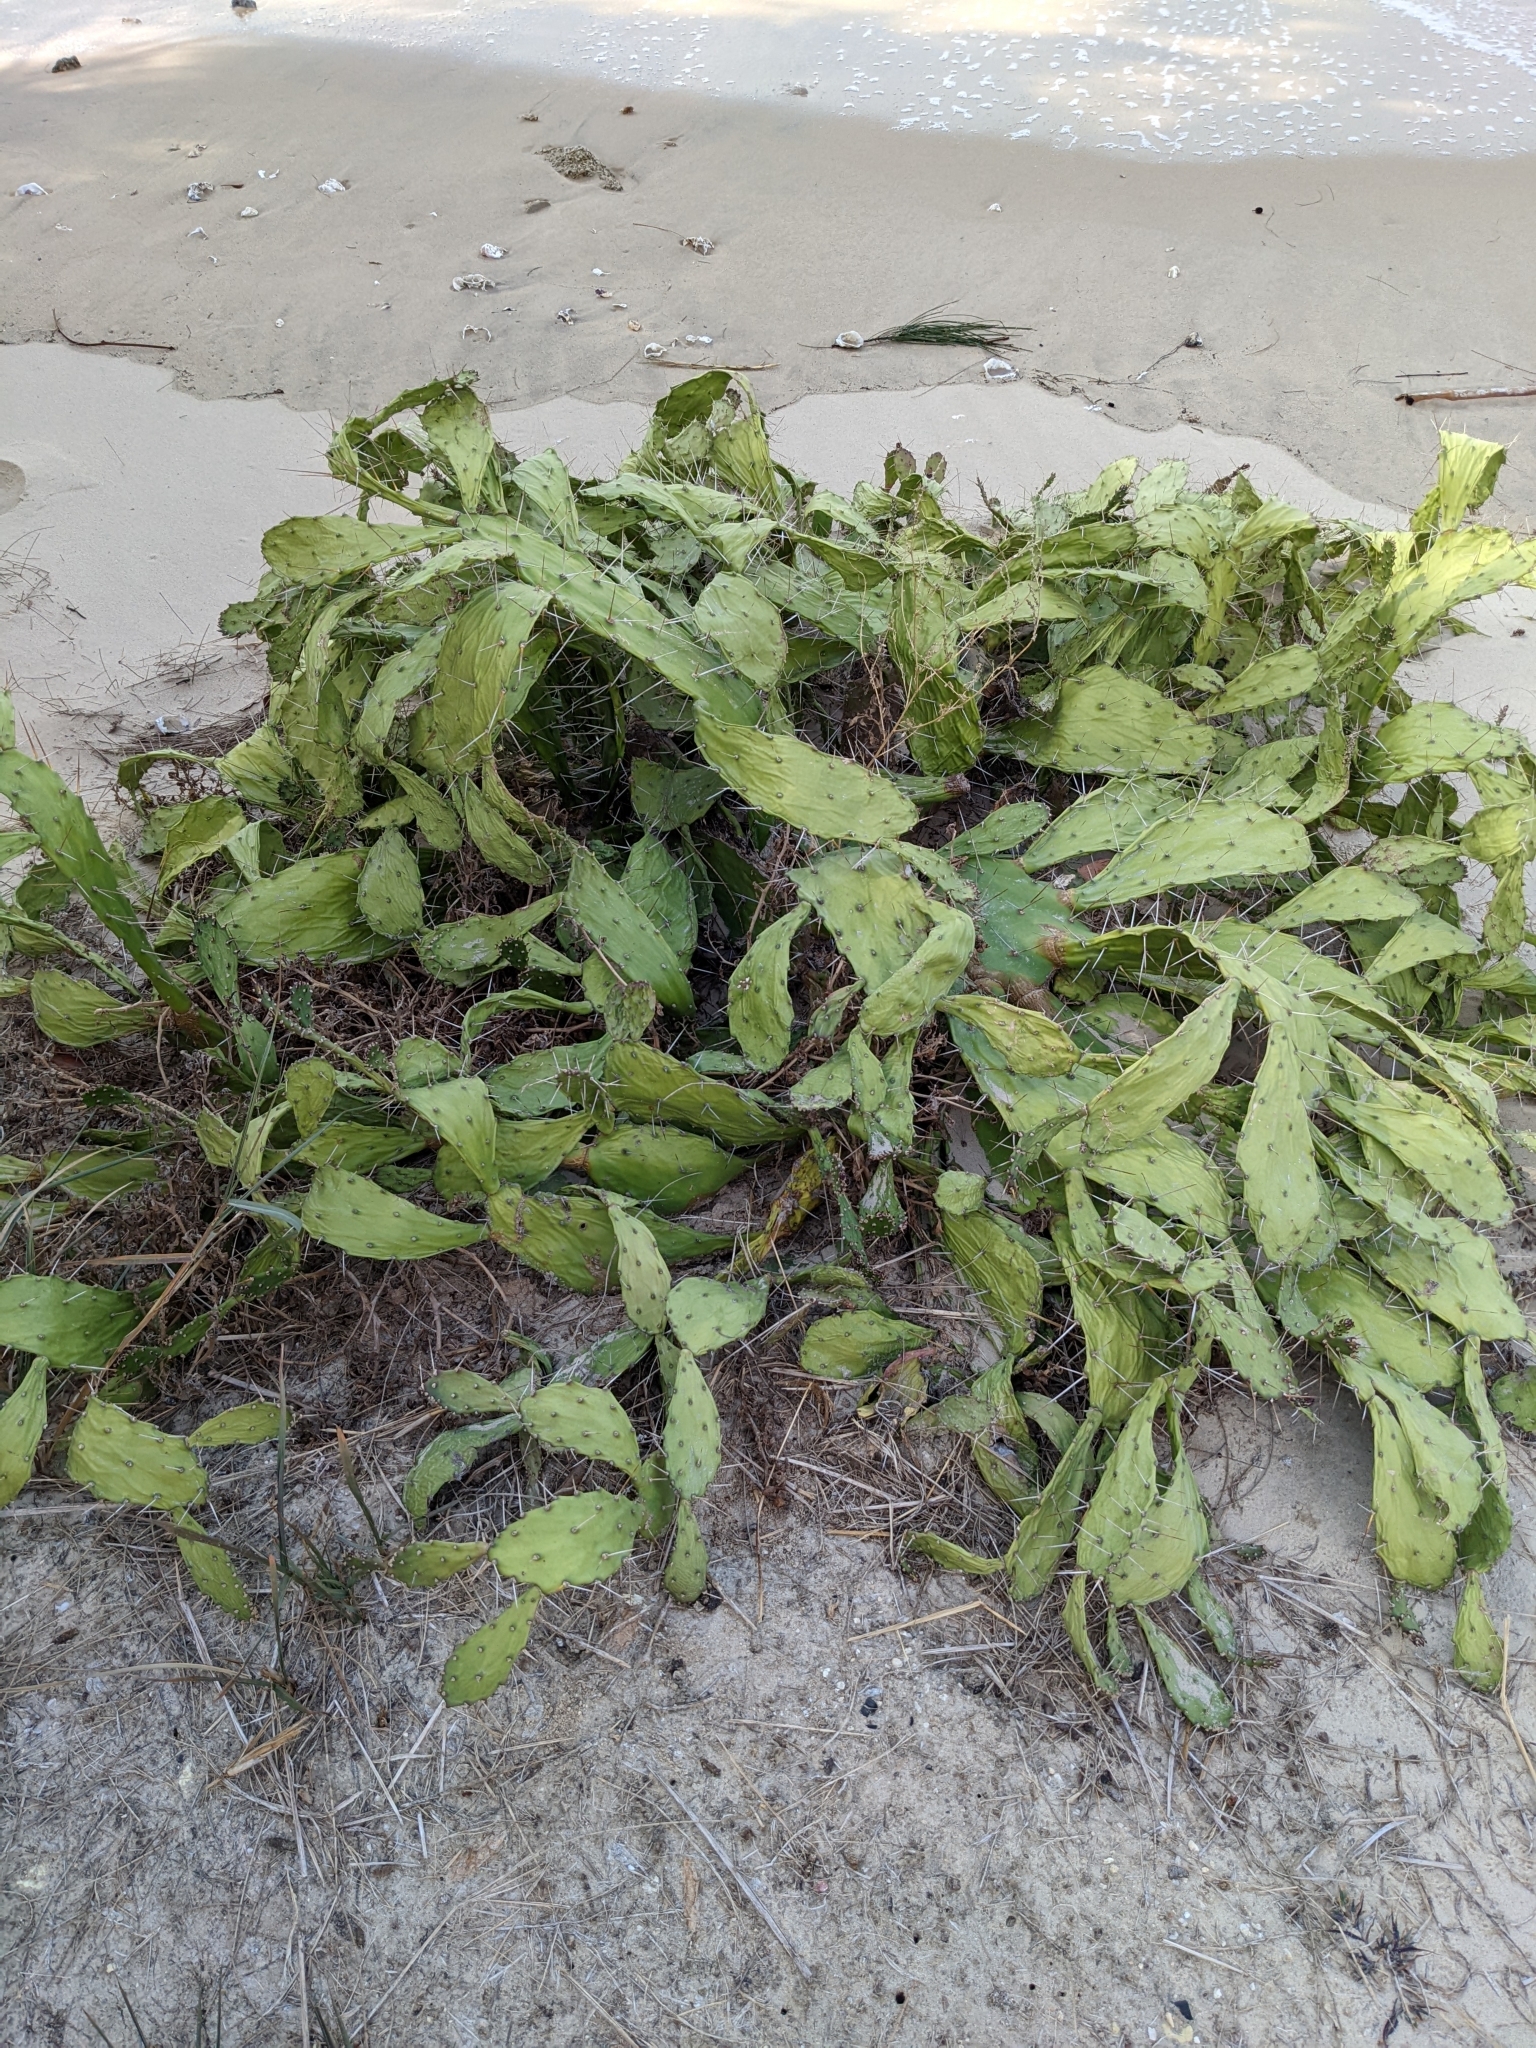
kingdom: Plantae
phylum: Tracheophyta
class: Magnoliopsida
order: Caryophyllales
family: Cactaceae
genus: Opuntia
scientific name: Opuntia monacantha
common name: Common pricklypear
